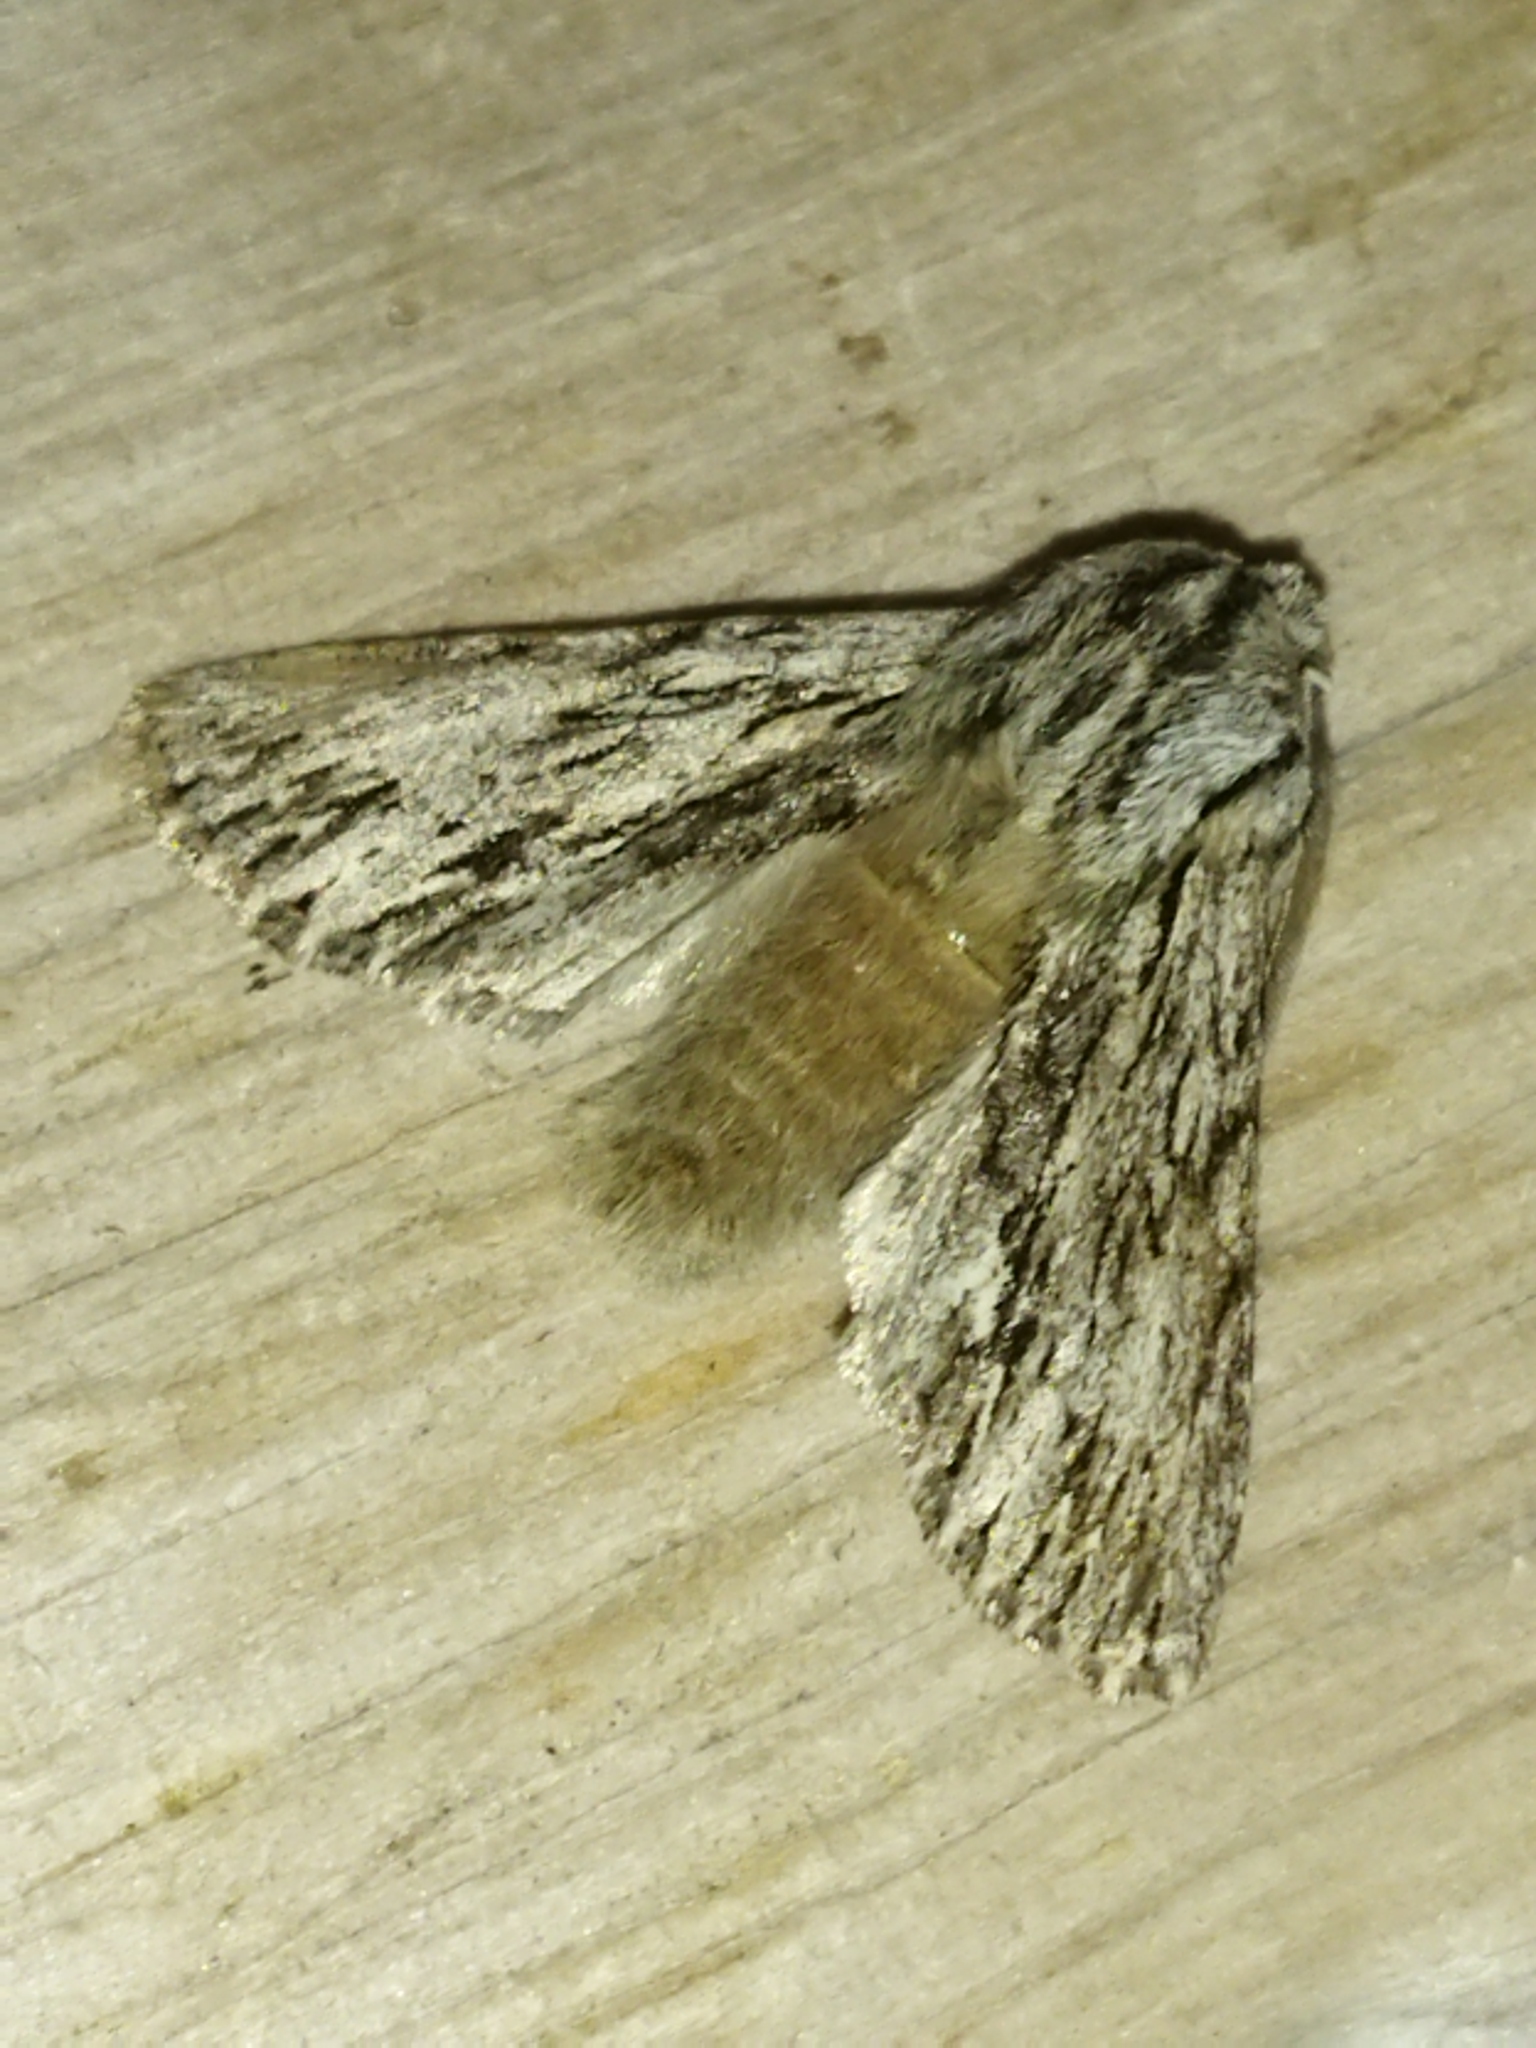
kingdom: Animalia
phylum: Arthropoda
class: Insecta
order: Lepidoptera
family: Noctuidae
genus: Asteroscopus
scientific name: Asteroscopus sphinx
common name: The sprawler
